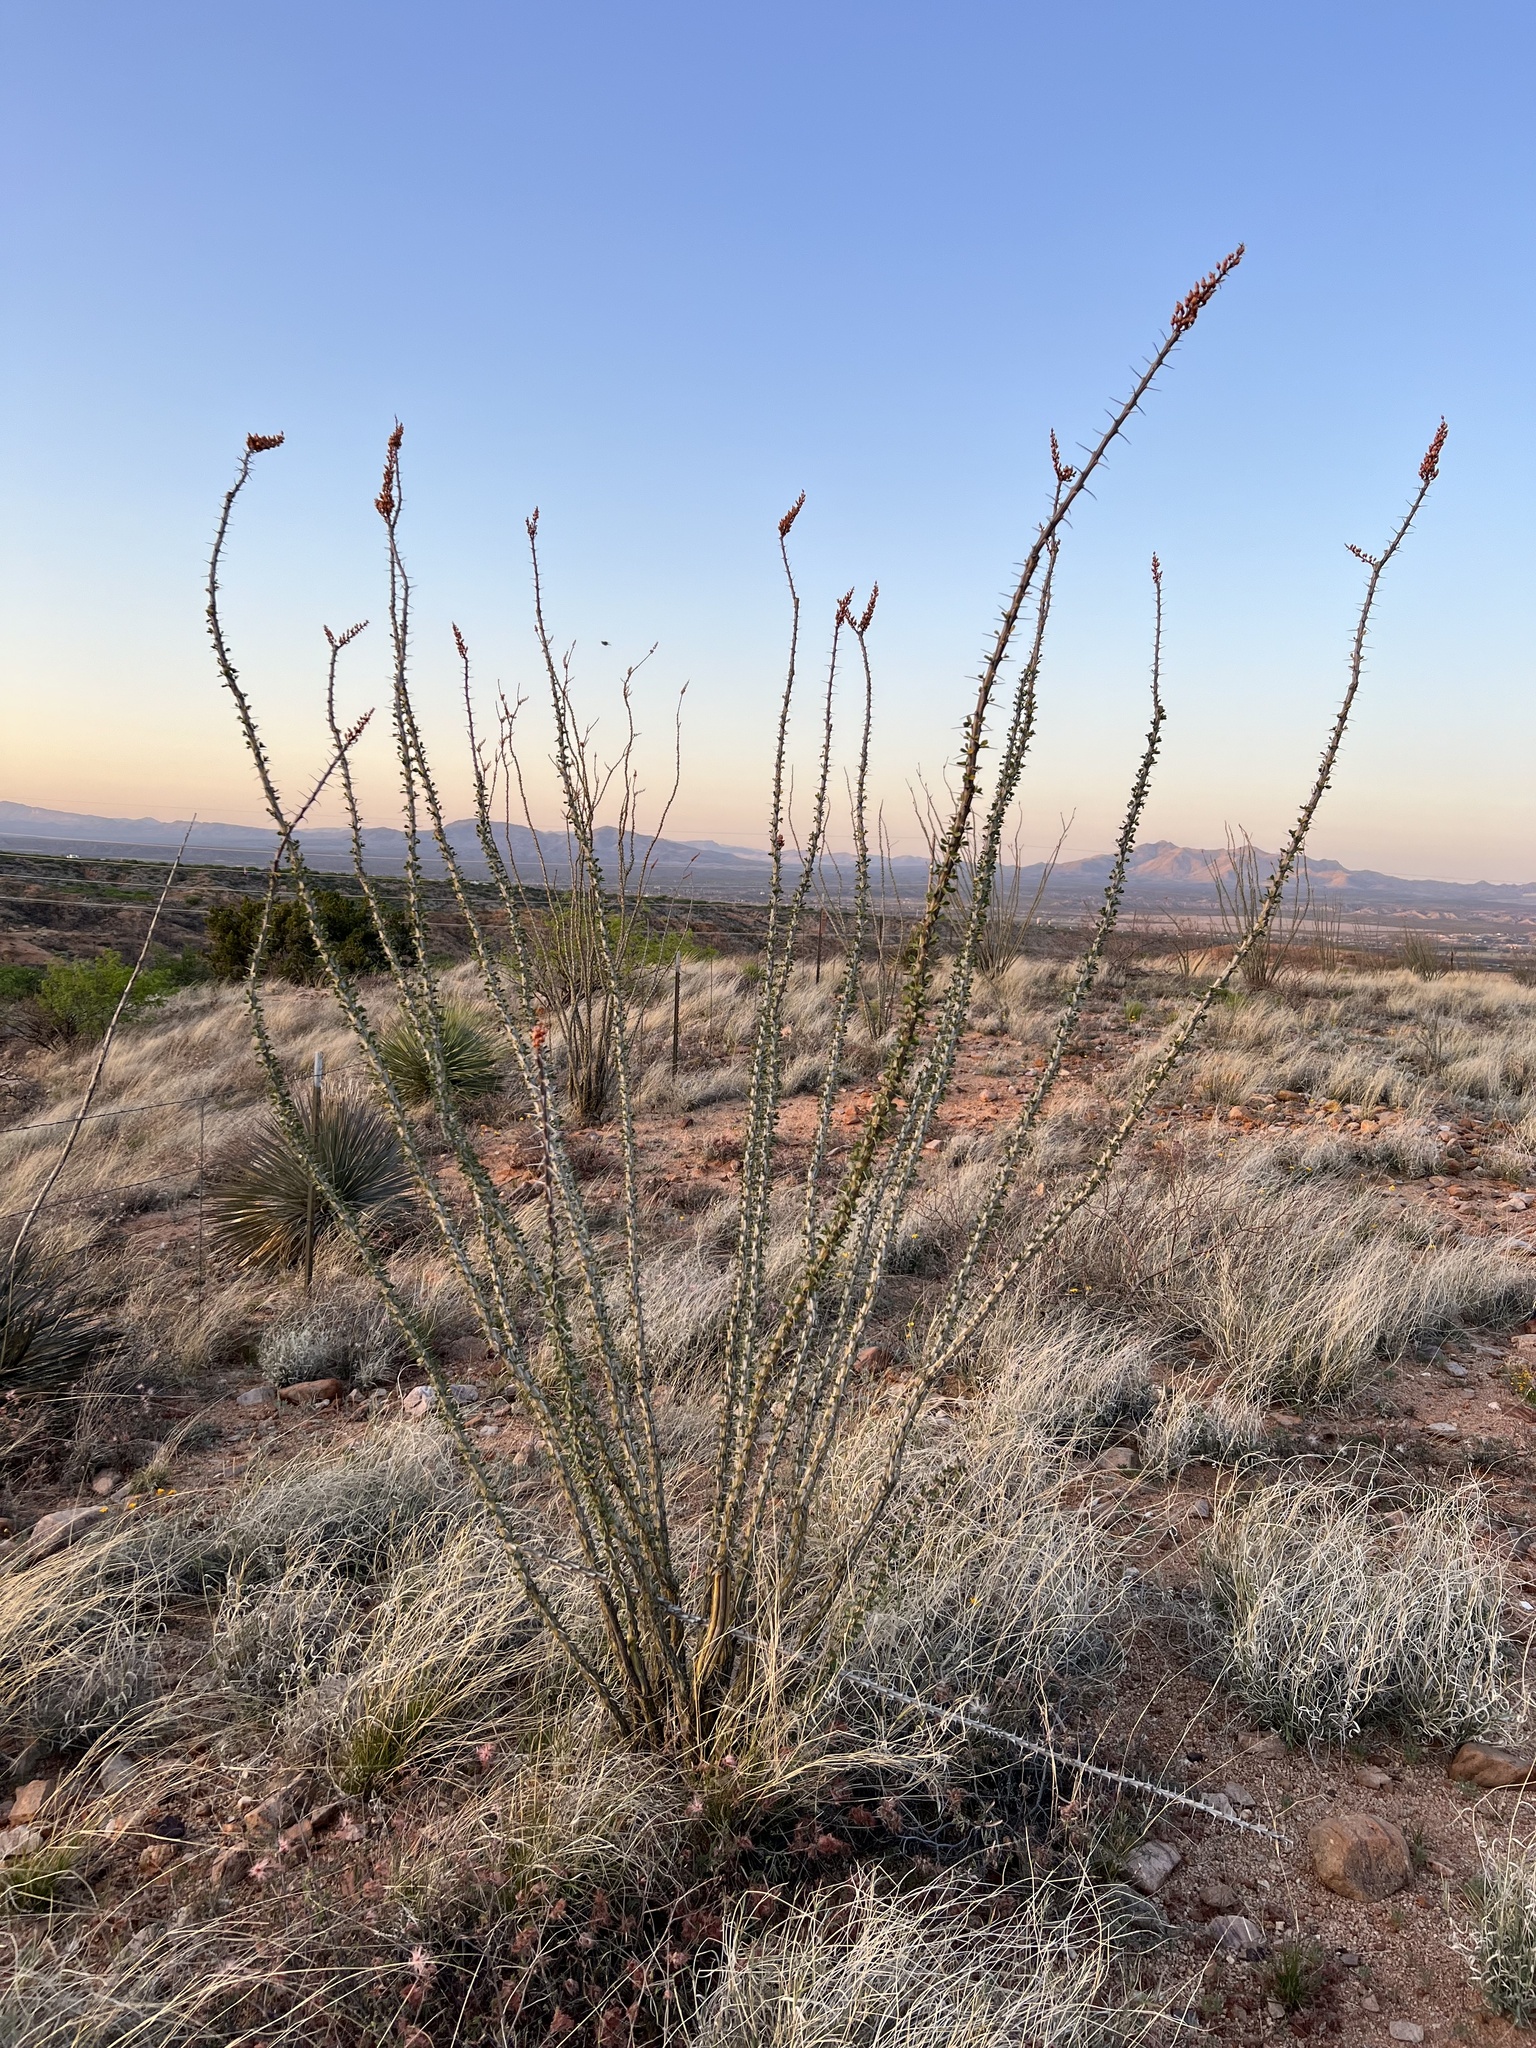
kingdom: Plantae
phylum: Tracheophyta
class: Magnoliopsida
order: Ericales
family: Fouquieriaceae
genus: Fouquieria
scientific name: Fouquieria splendens
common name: Vine-cactus
